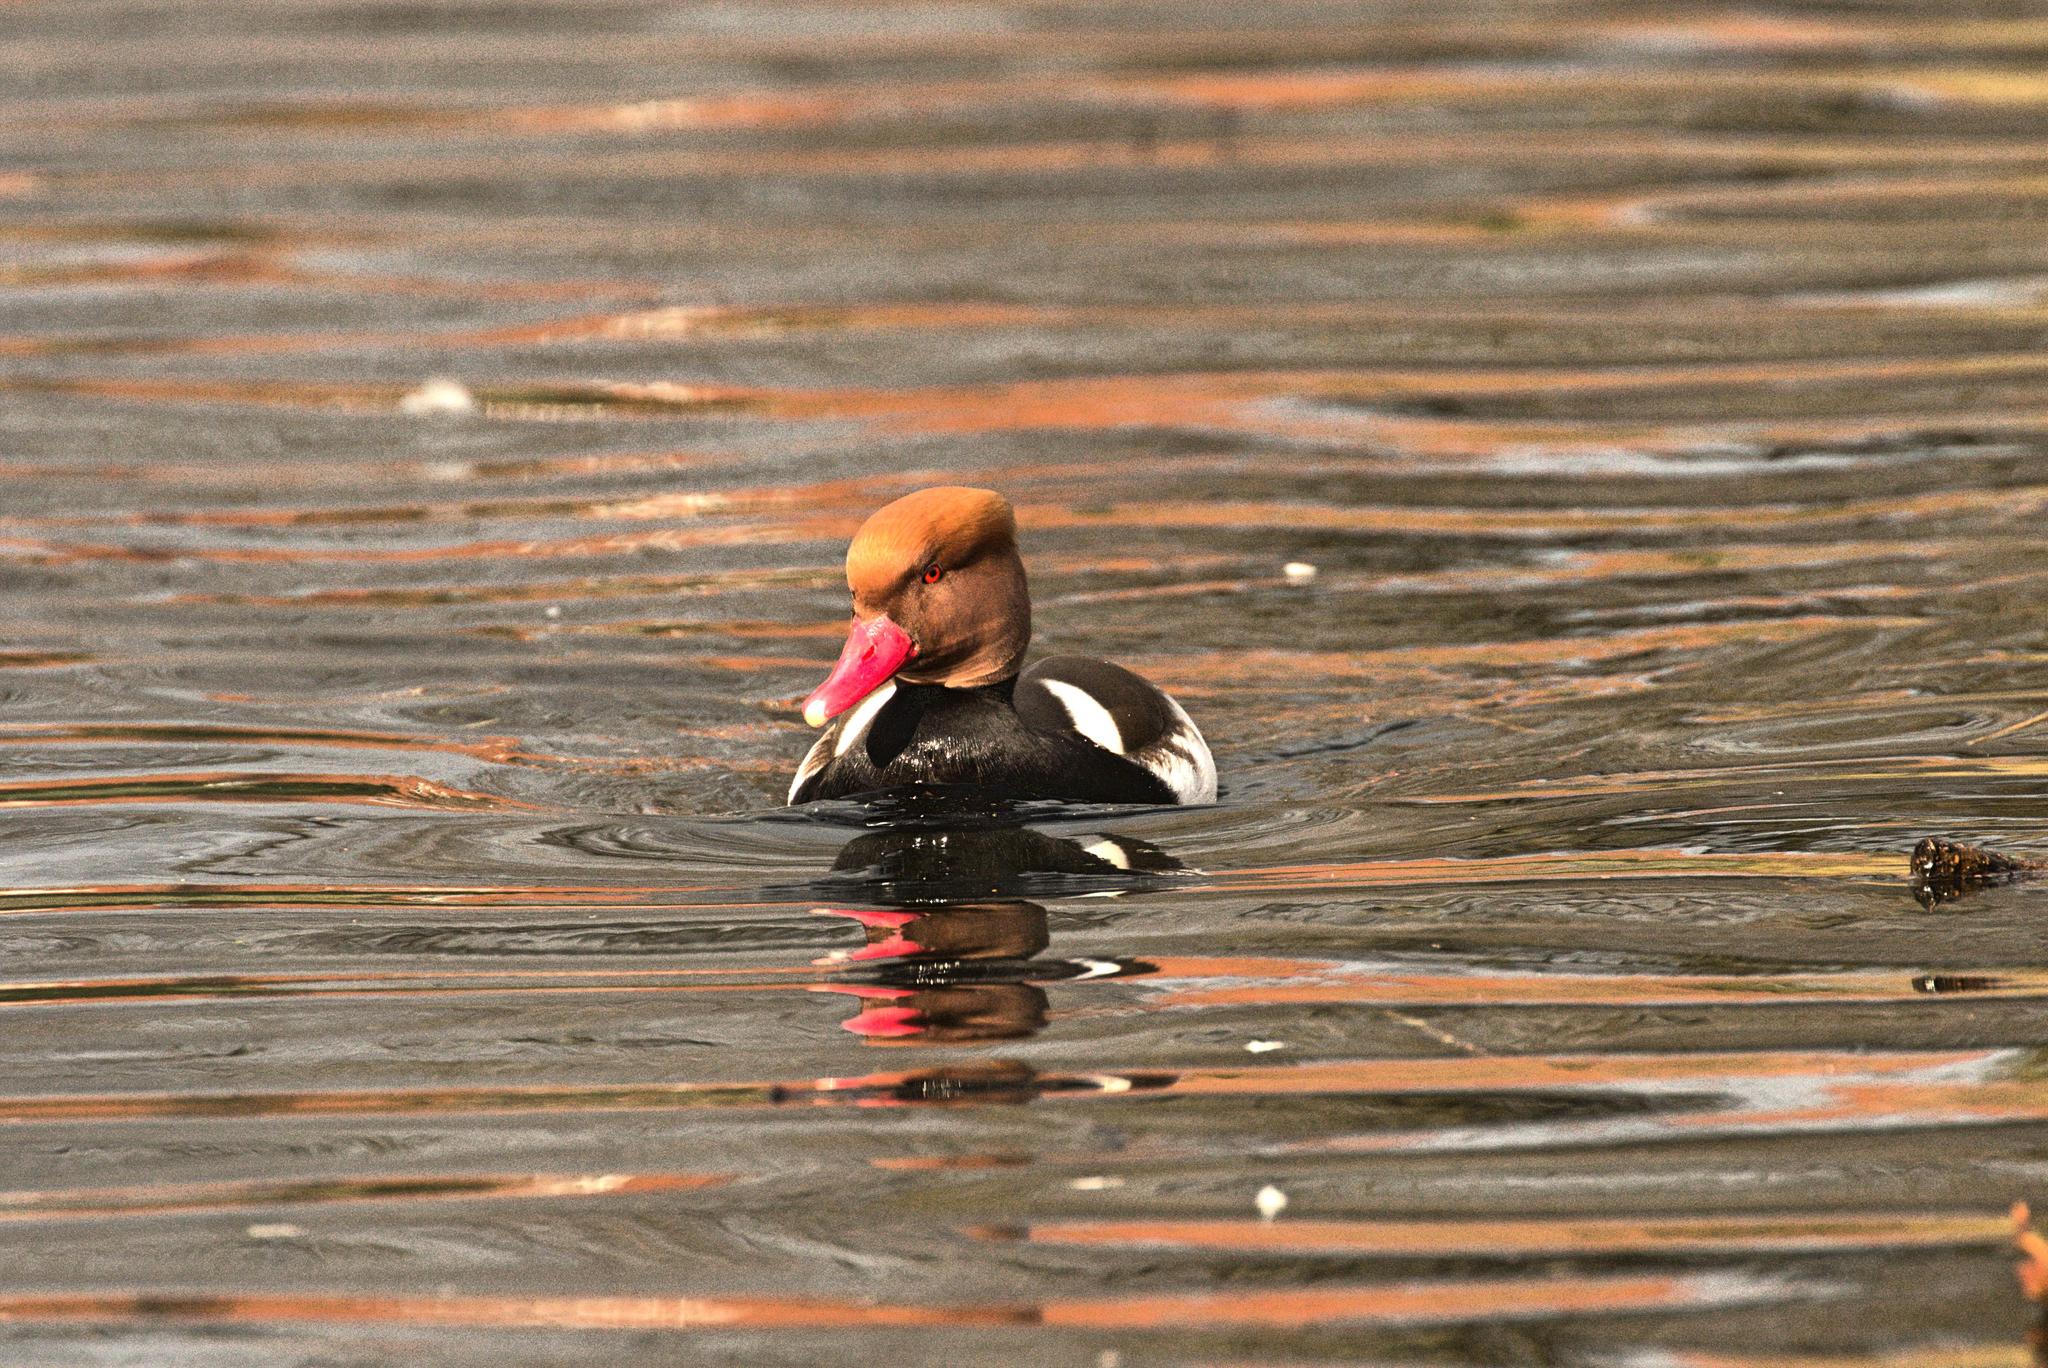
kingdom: Animalia
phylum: Chordata
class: Aves
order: Anseriformes
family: Anatidae
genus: Netta
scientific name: Netta rufina
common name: Red-crested pochard
